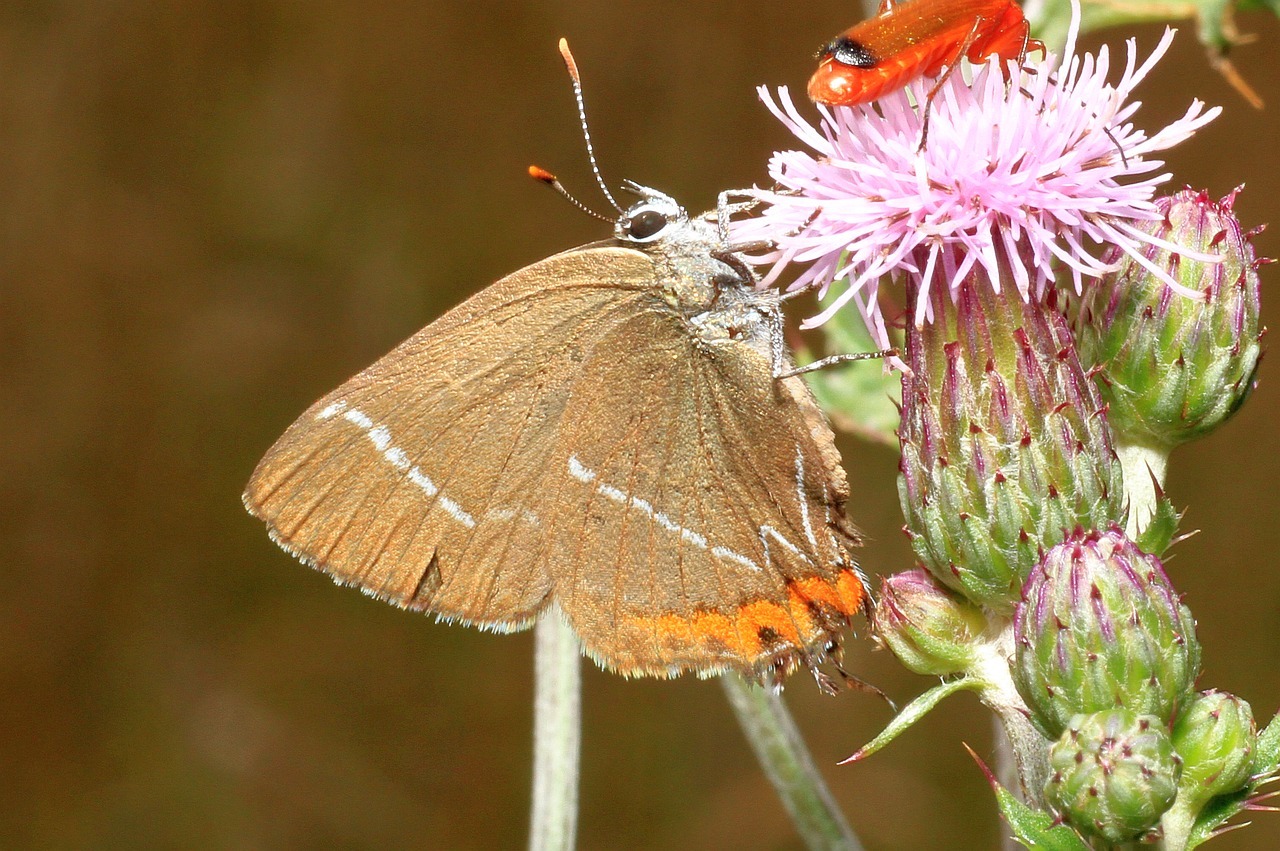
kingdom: Animalia
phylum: Arthropoda
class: Insecta
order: Lepidoptera
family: Lycaenidae
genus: Satyrium
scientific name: Satyrium w-album
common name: White-letter hairstreak
